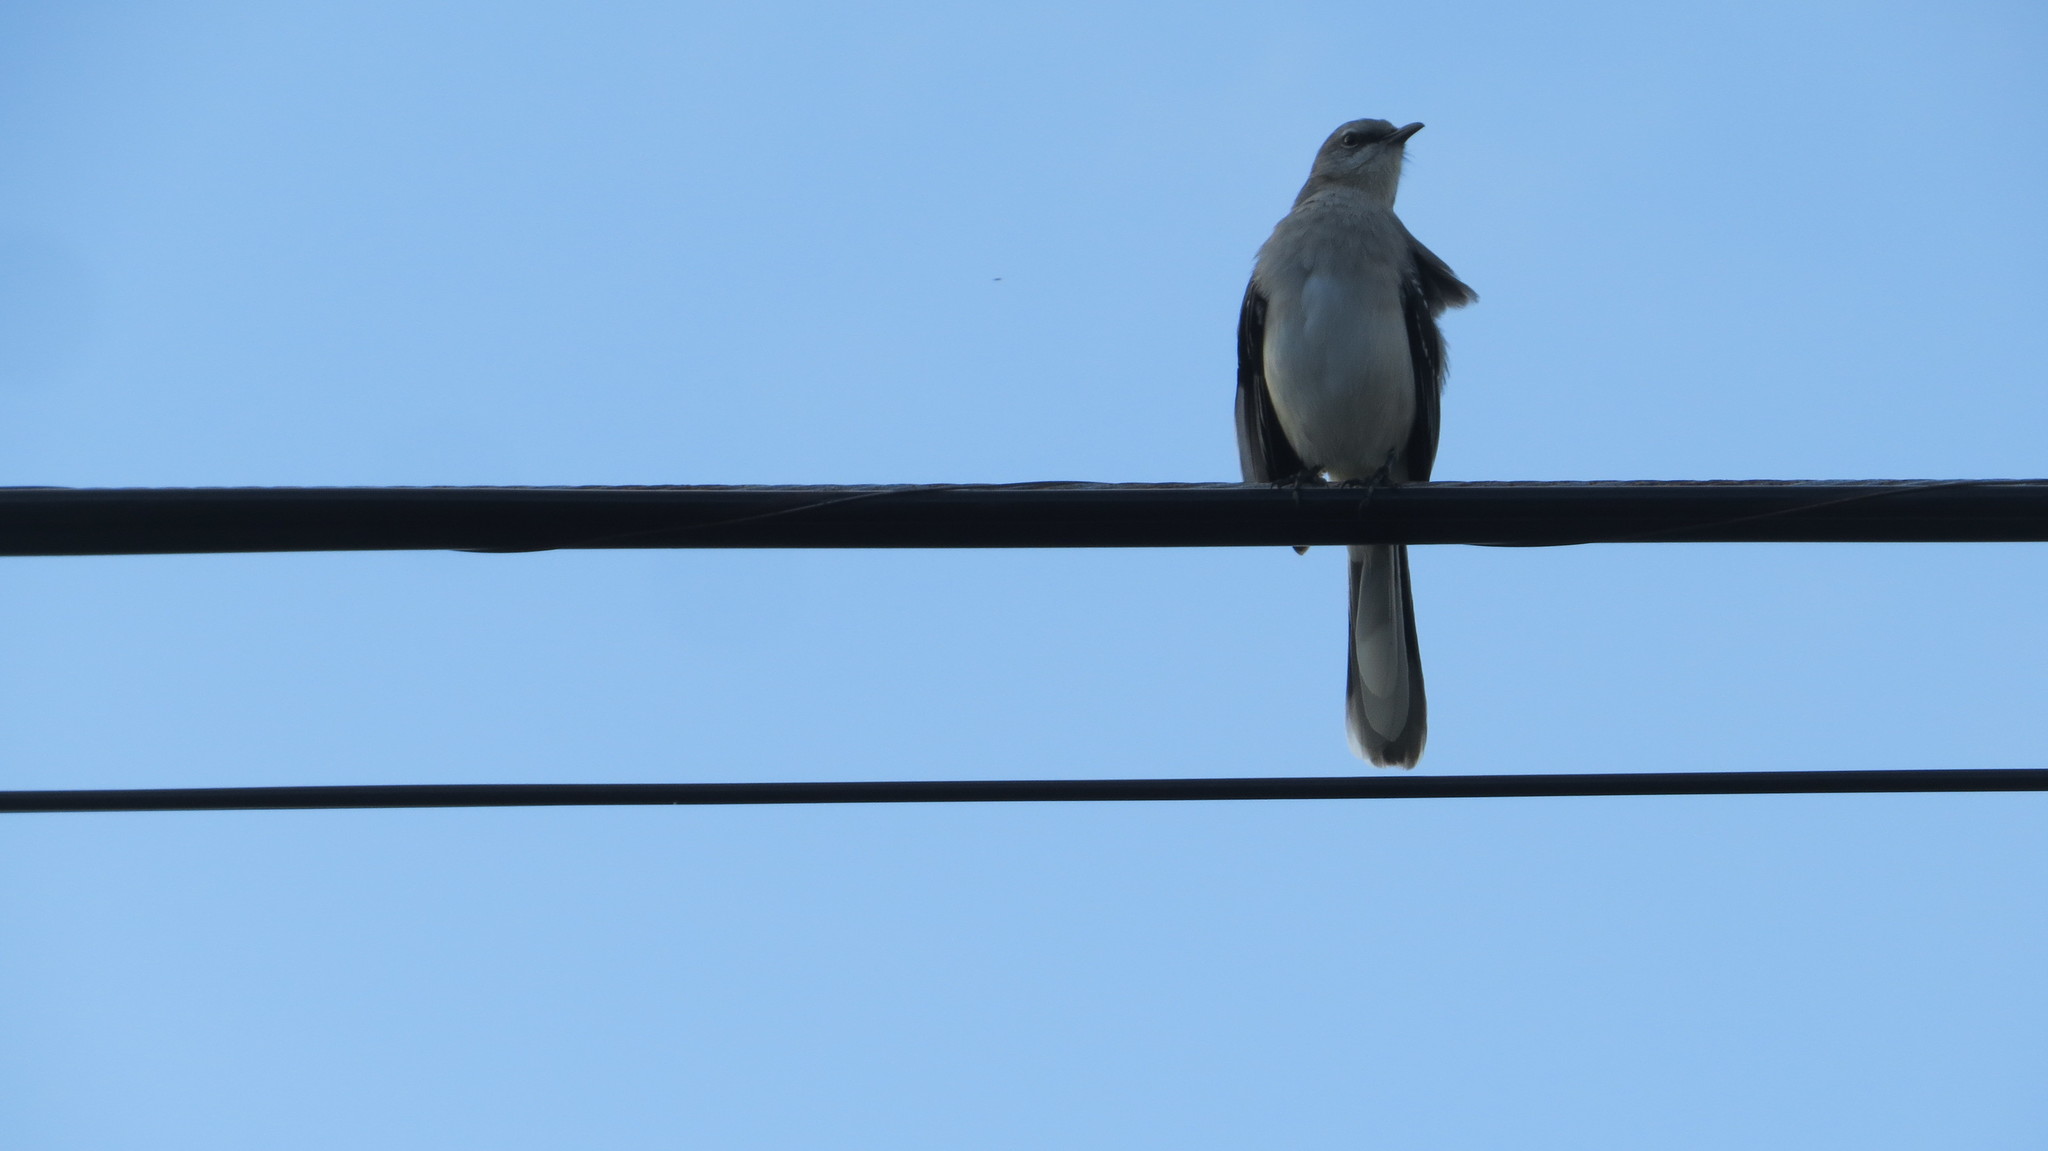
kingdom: Animalia
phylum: Chordata
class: Aves
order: Passeriformes
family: Mimidae
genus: Mimus
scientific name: Mimus gilvus
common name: Tropical mockingbird
